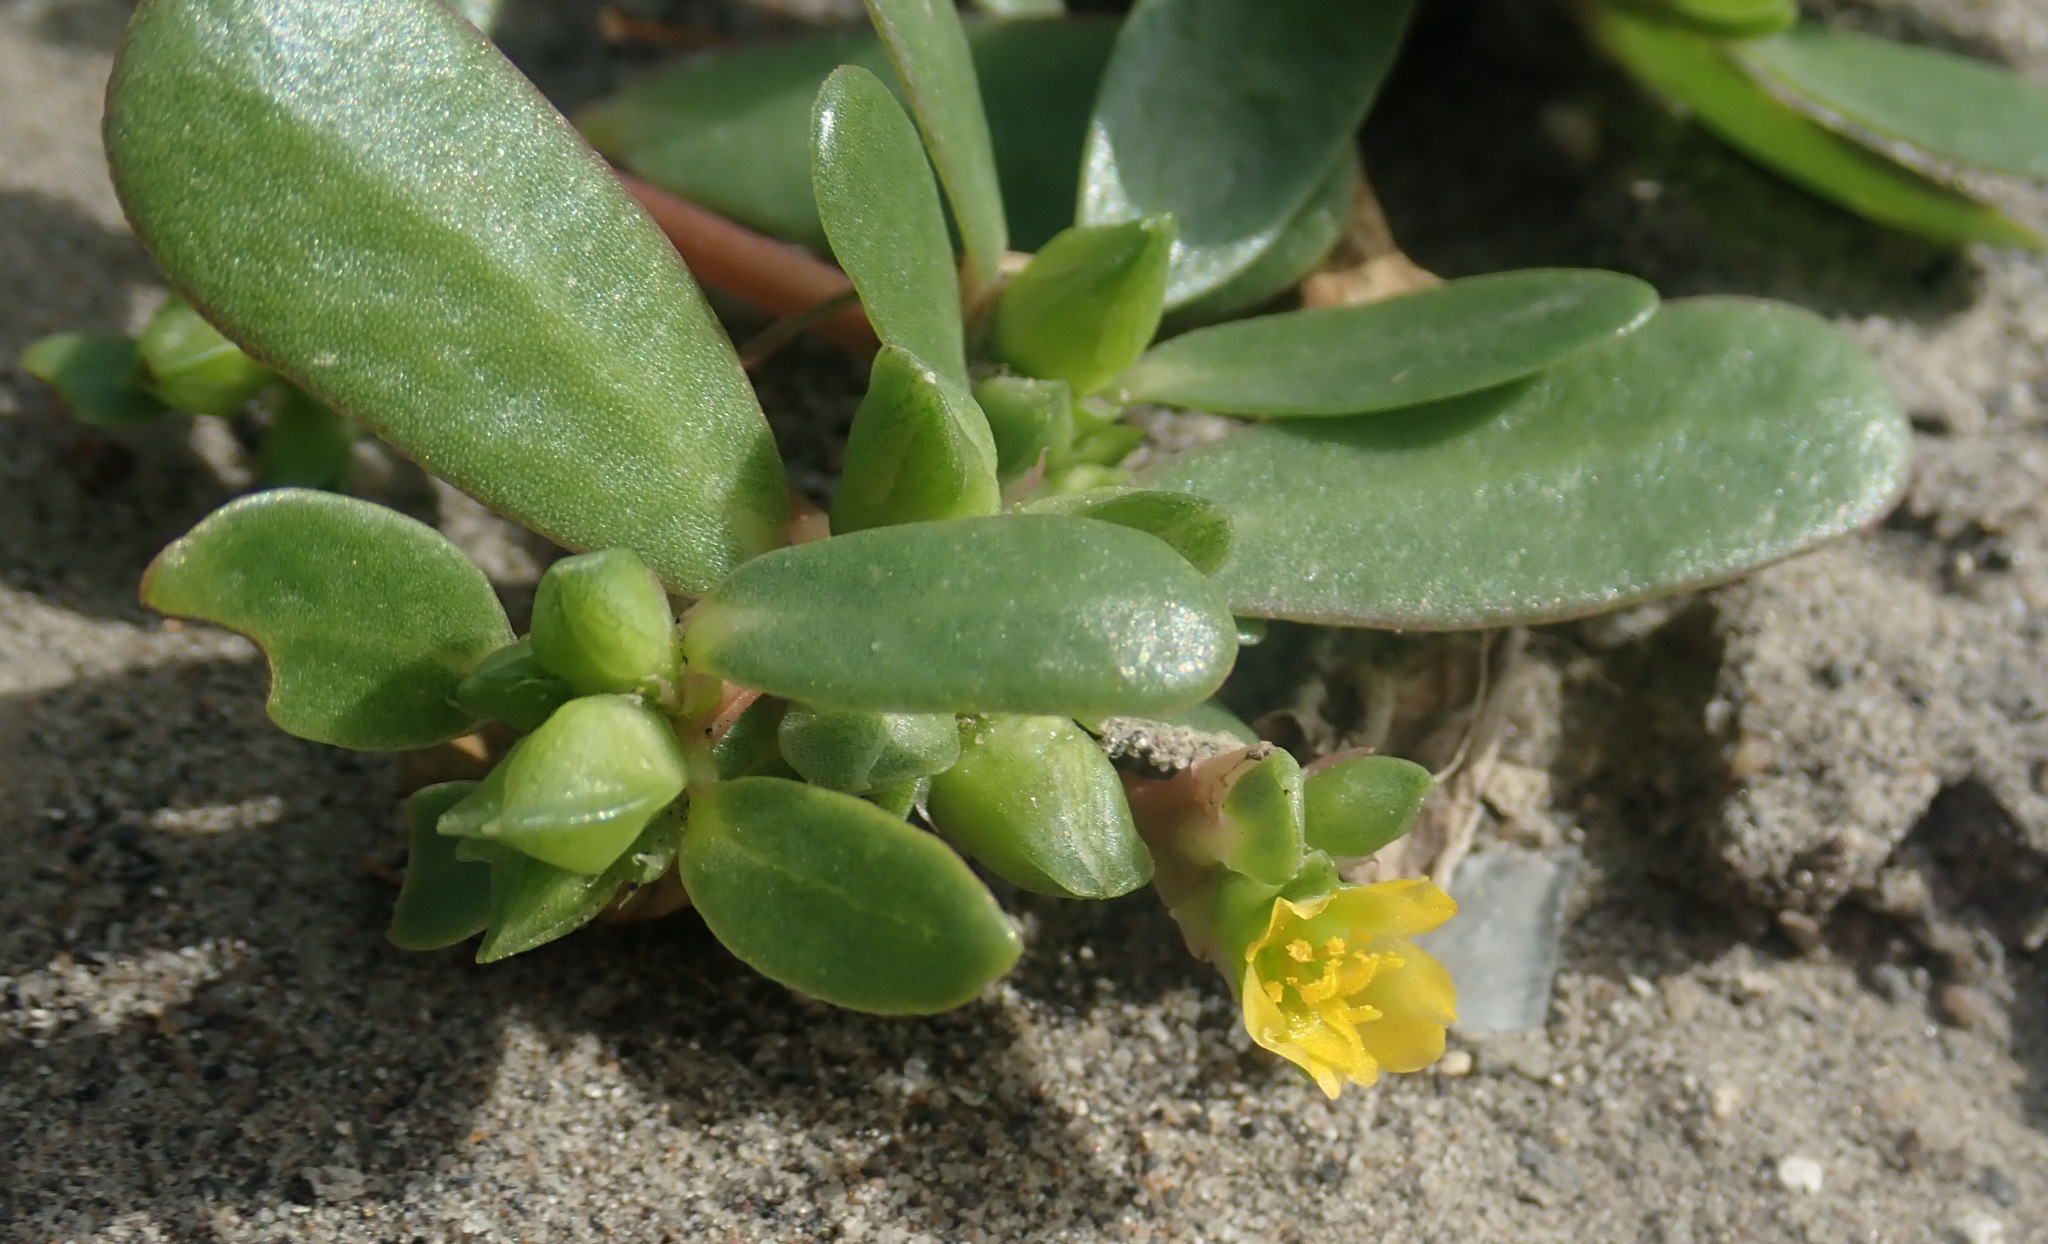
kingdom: Plantae
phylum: Tracheophyta
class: Magnoliopsida
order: Caryophyllales
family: Portulacaceae
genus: Portulaca
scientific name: Portulaca oleracea
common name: Common purslane
